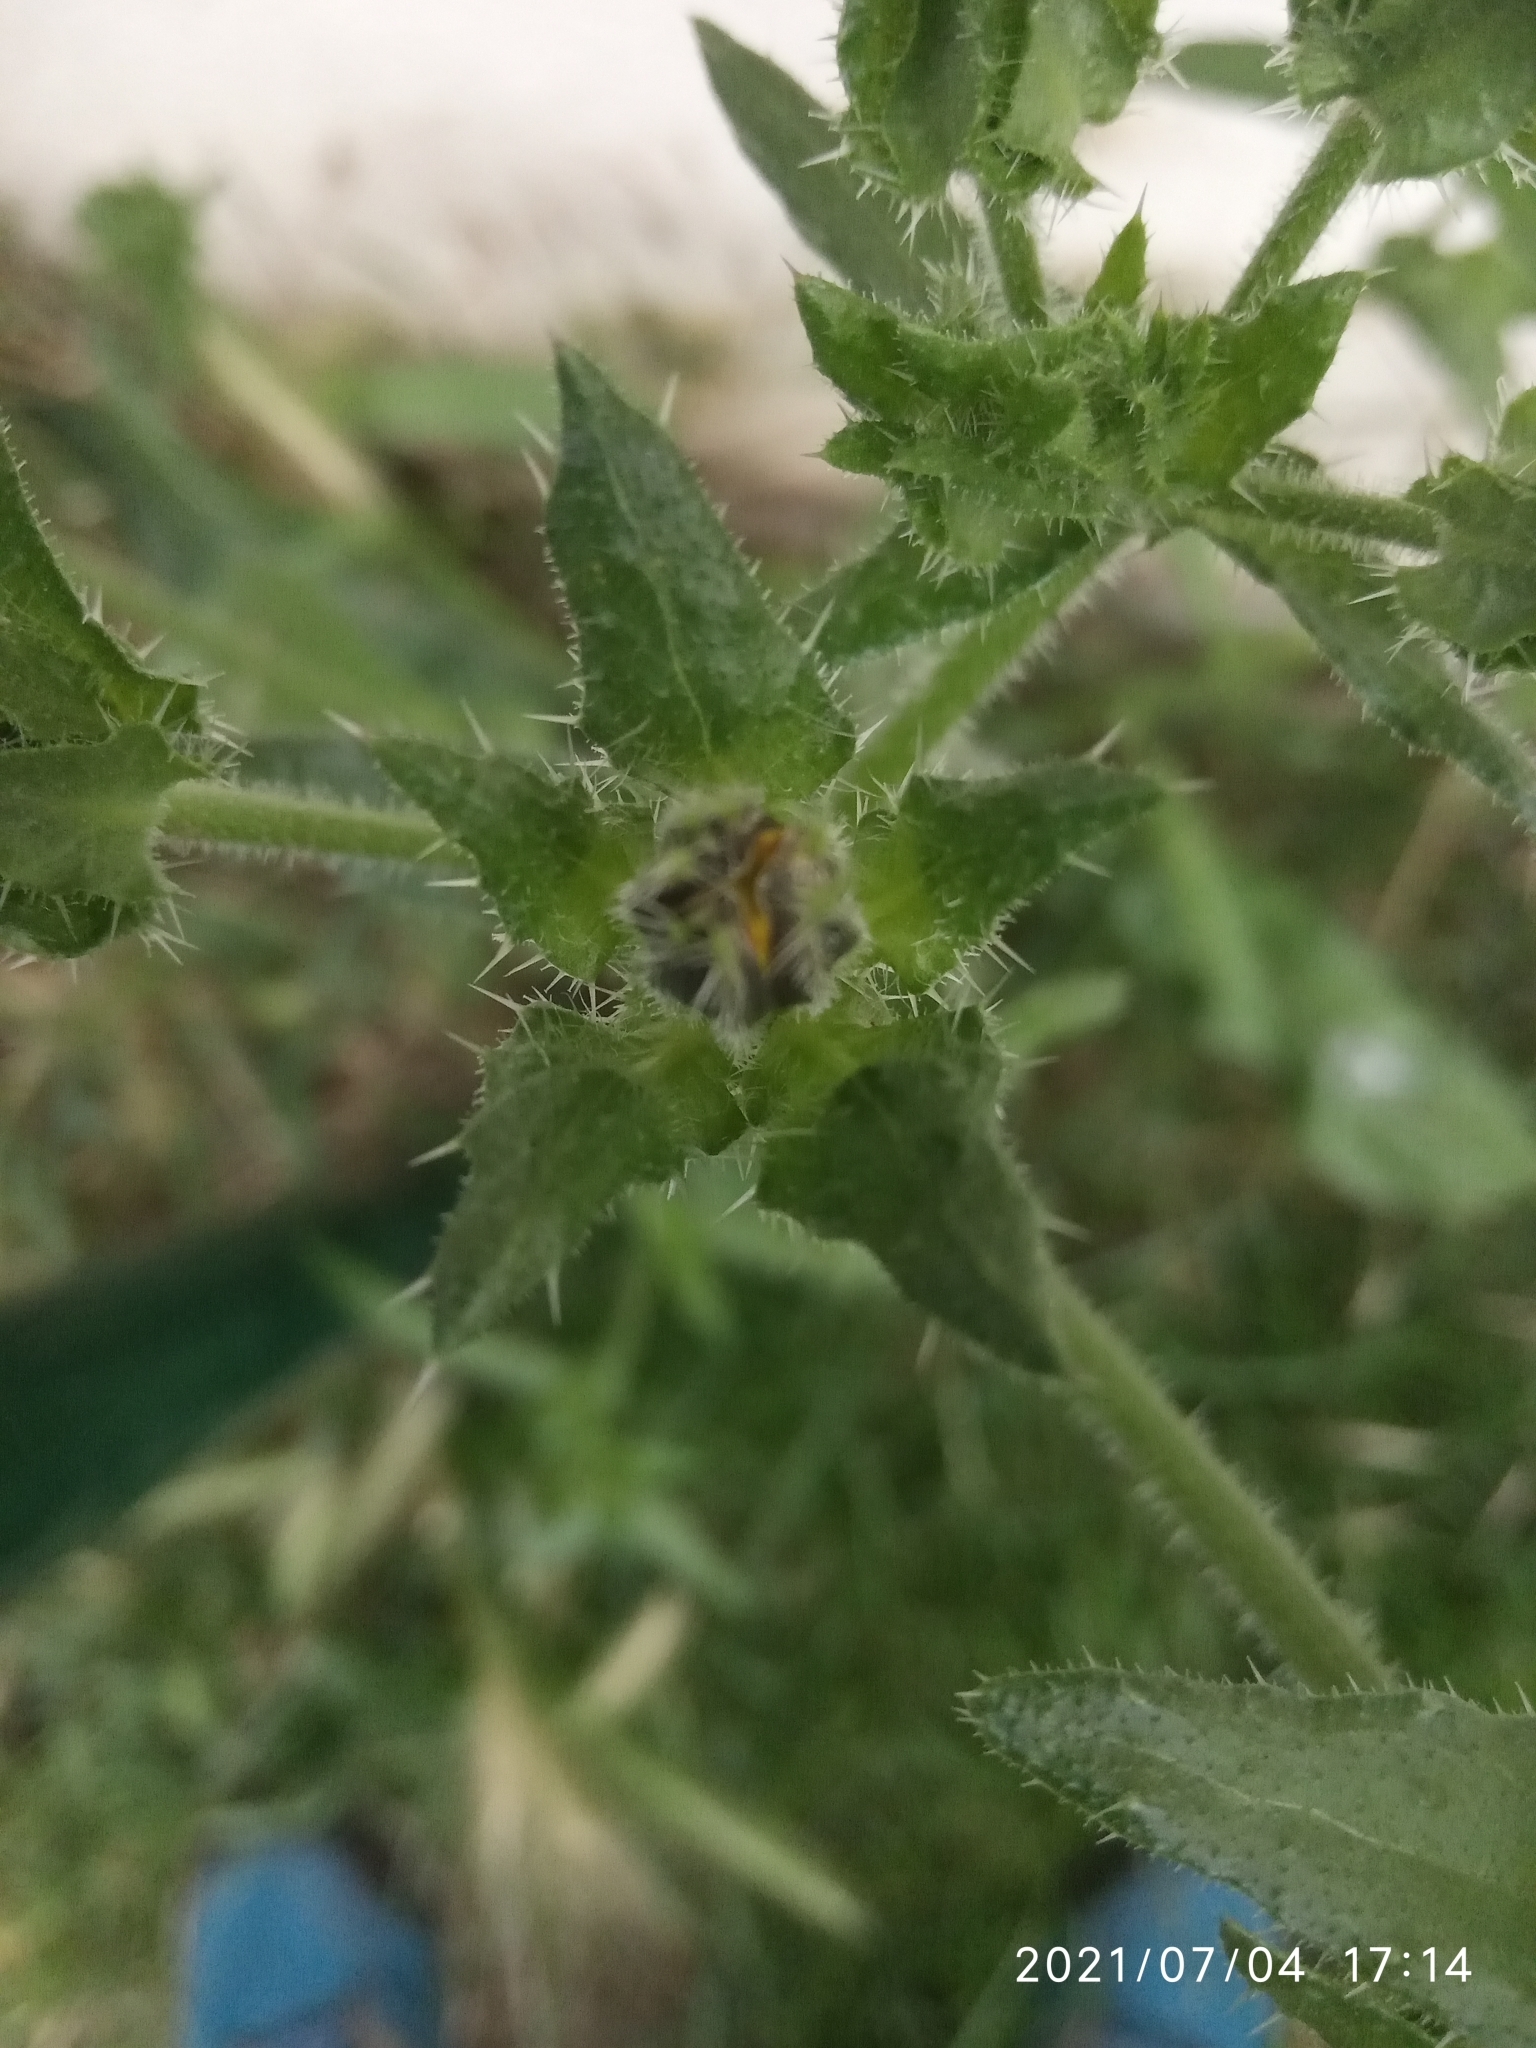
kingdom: Plantae
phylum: Tracheophyta
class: Magnoliopsida
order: Asterales
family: Asteraceae
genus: Helminthotheca
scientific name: Helminthotheca echioides
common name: Ox-tongue
